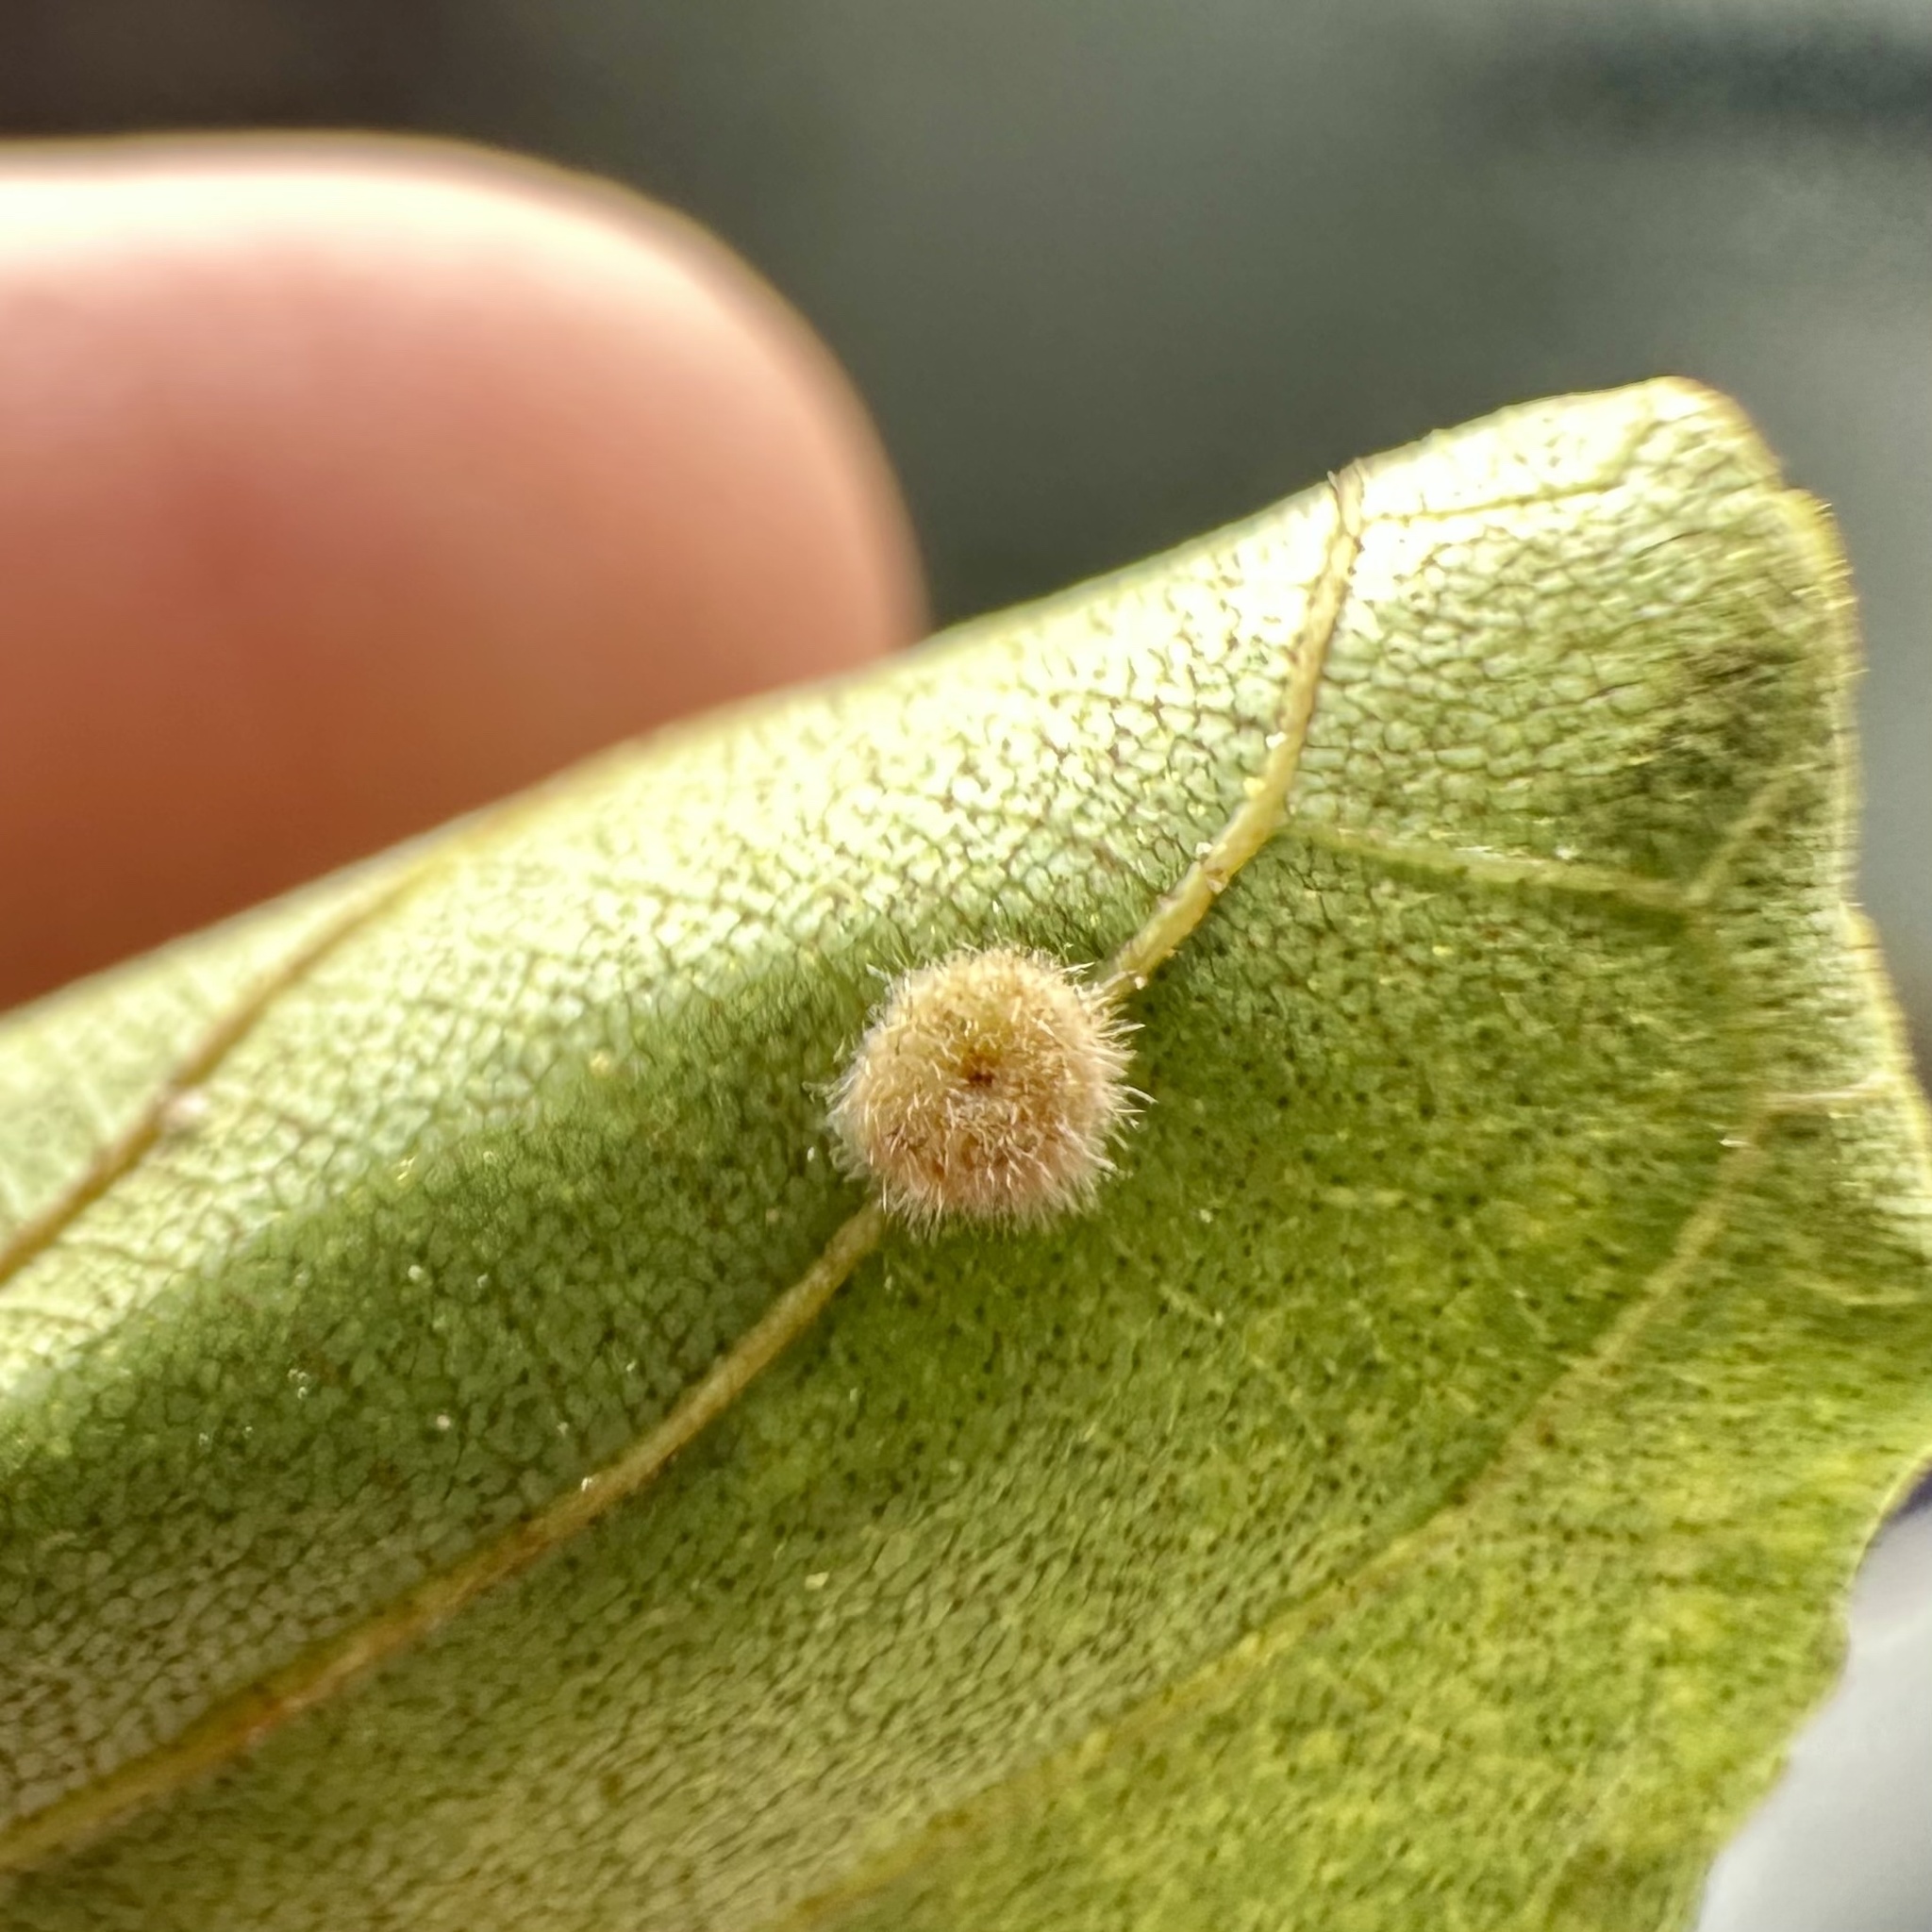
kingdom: Animalia
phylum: Arthropoda
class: Insecta
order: Diptera
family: Cecidomyiidae
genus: Caryomyia
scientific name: Caryomyia thompsoni
